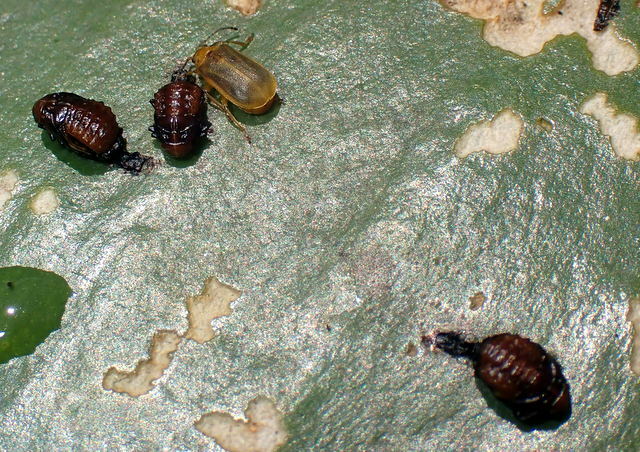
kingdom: Animalia
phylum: Arthropoda
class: Insecta
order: Coleoptera
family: Chrysomelidae
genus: Galerucella
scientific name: Galerucella nymphaeae
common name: Leaf beetle
